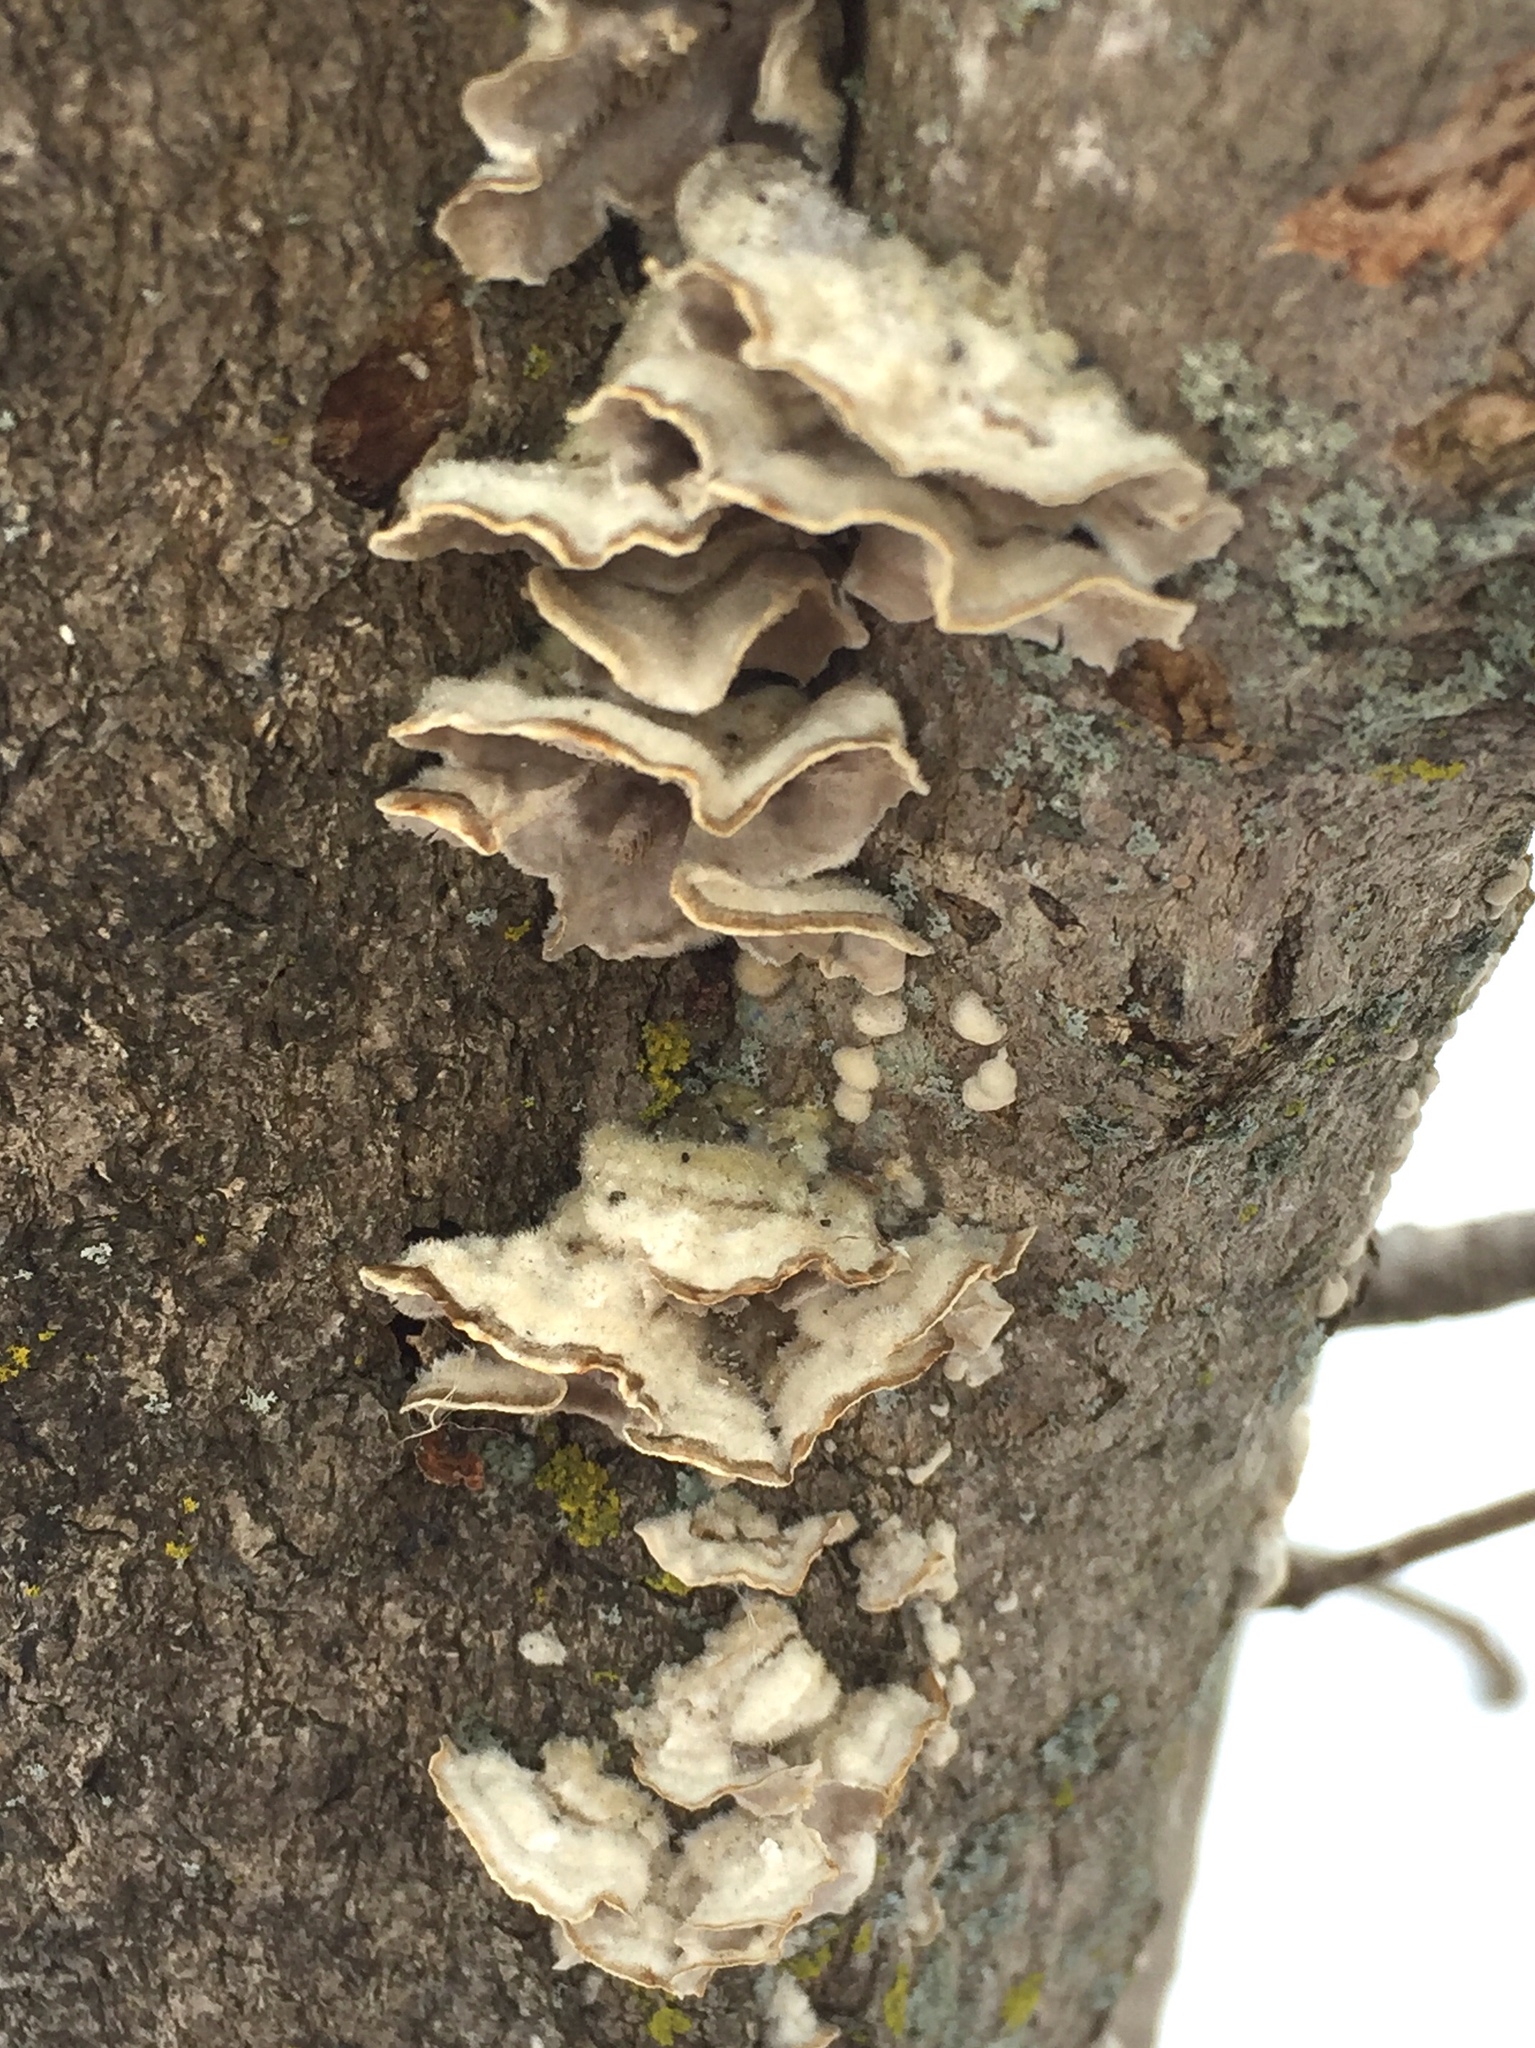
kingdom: Fungi
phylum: Basidiomycota
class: Agaricomycetes
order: Polyporales
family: Cerrenaceae
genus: Cerrena
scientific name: Cerrena unicolor
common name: Mossy maze polypore
